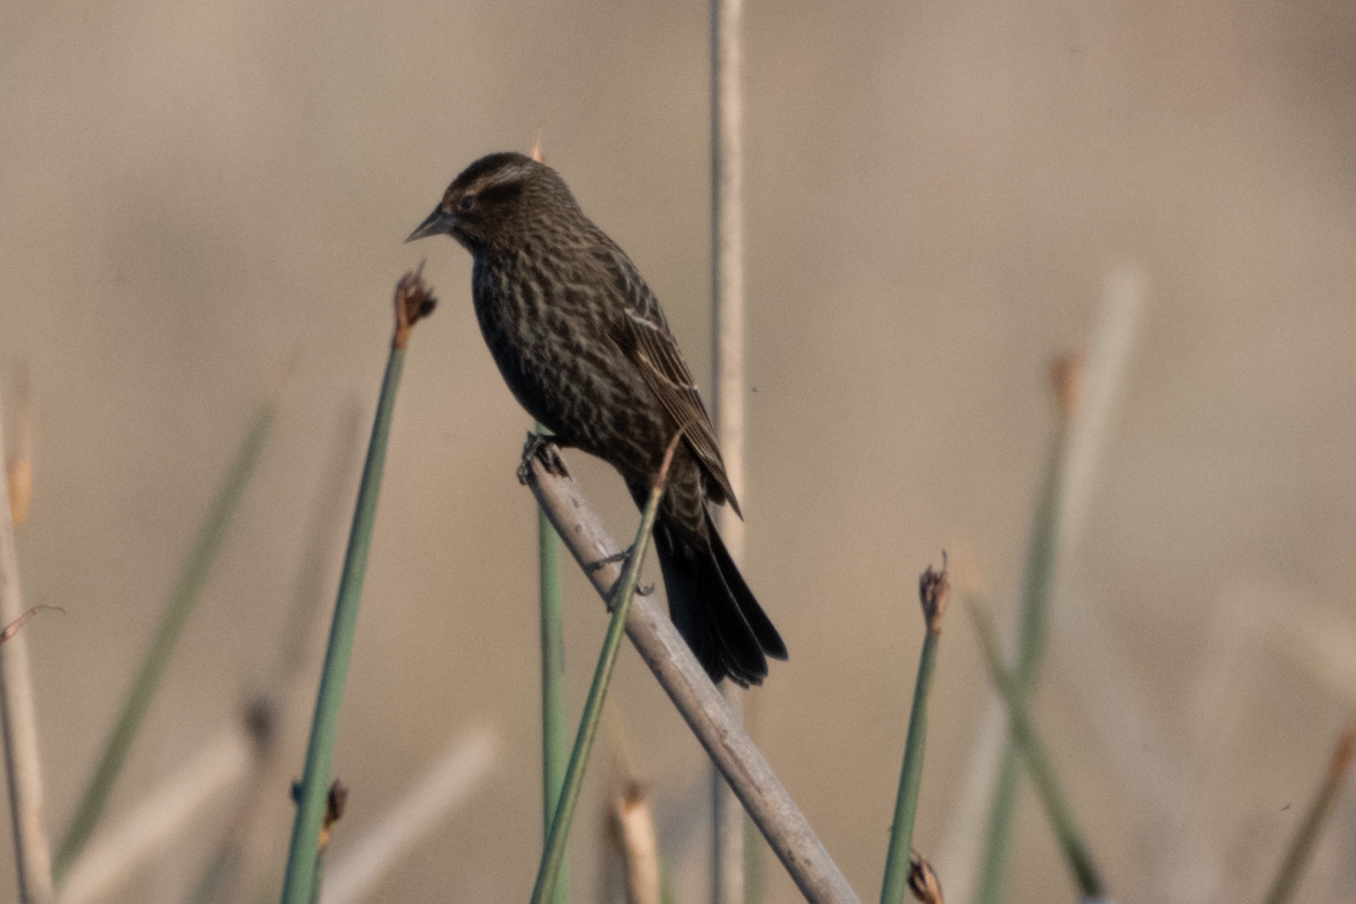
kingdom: Animalia
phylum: Chordata
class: Aves
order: Passeriformes
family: Icteridae
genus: Agelaius
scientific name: Agelaius phoeniceus
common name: Red-winged blackbird
